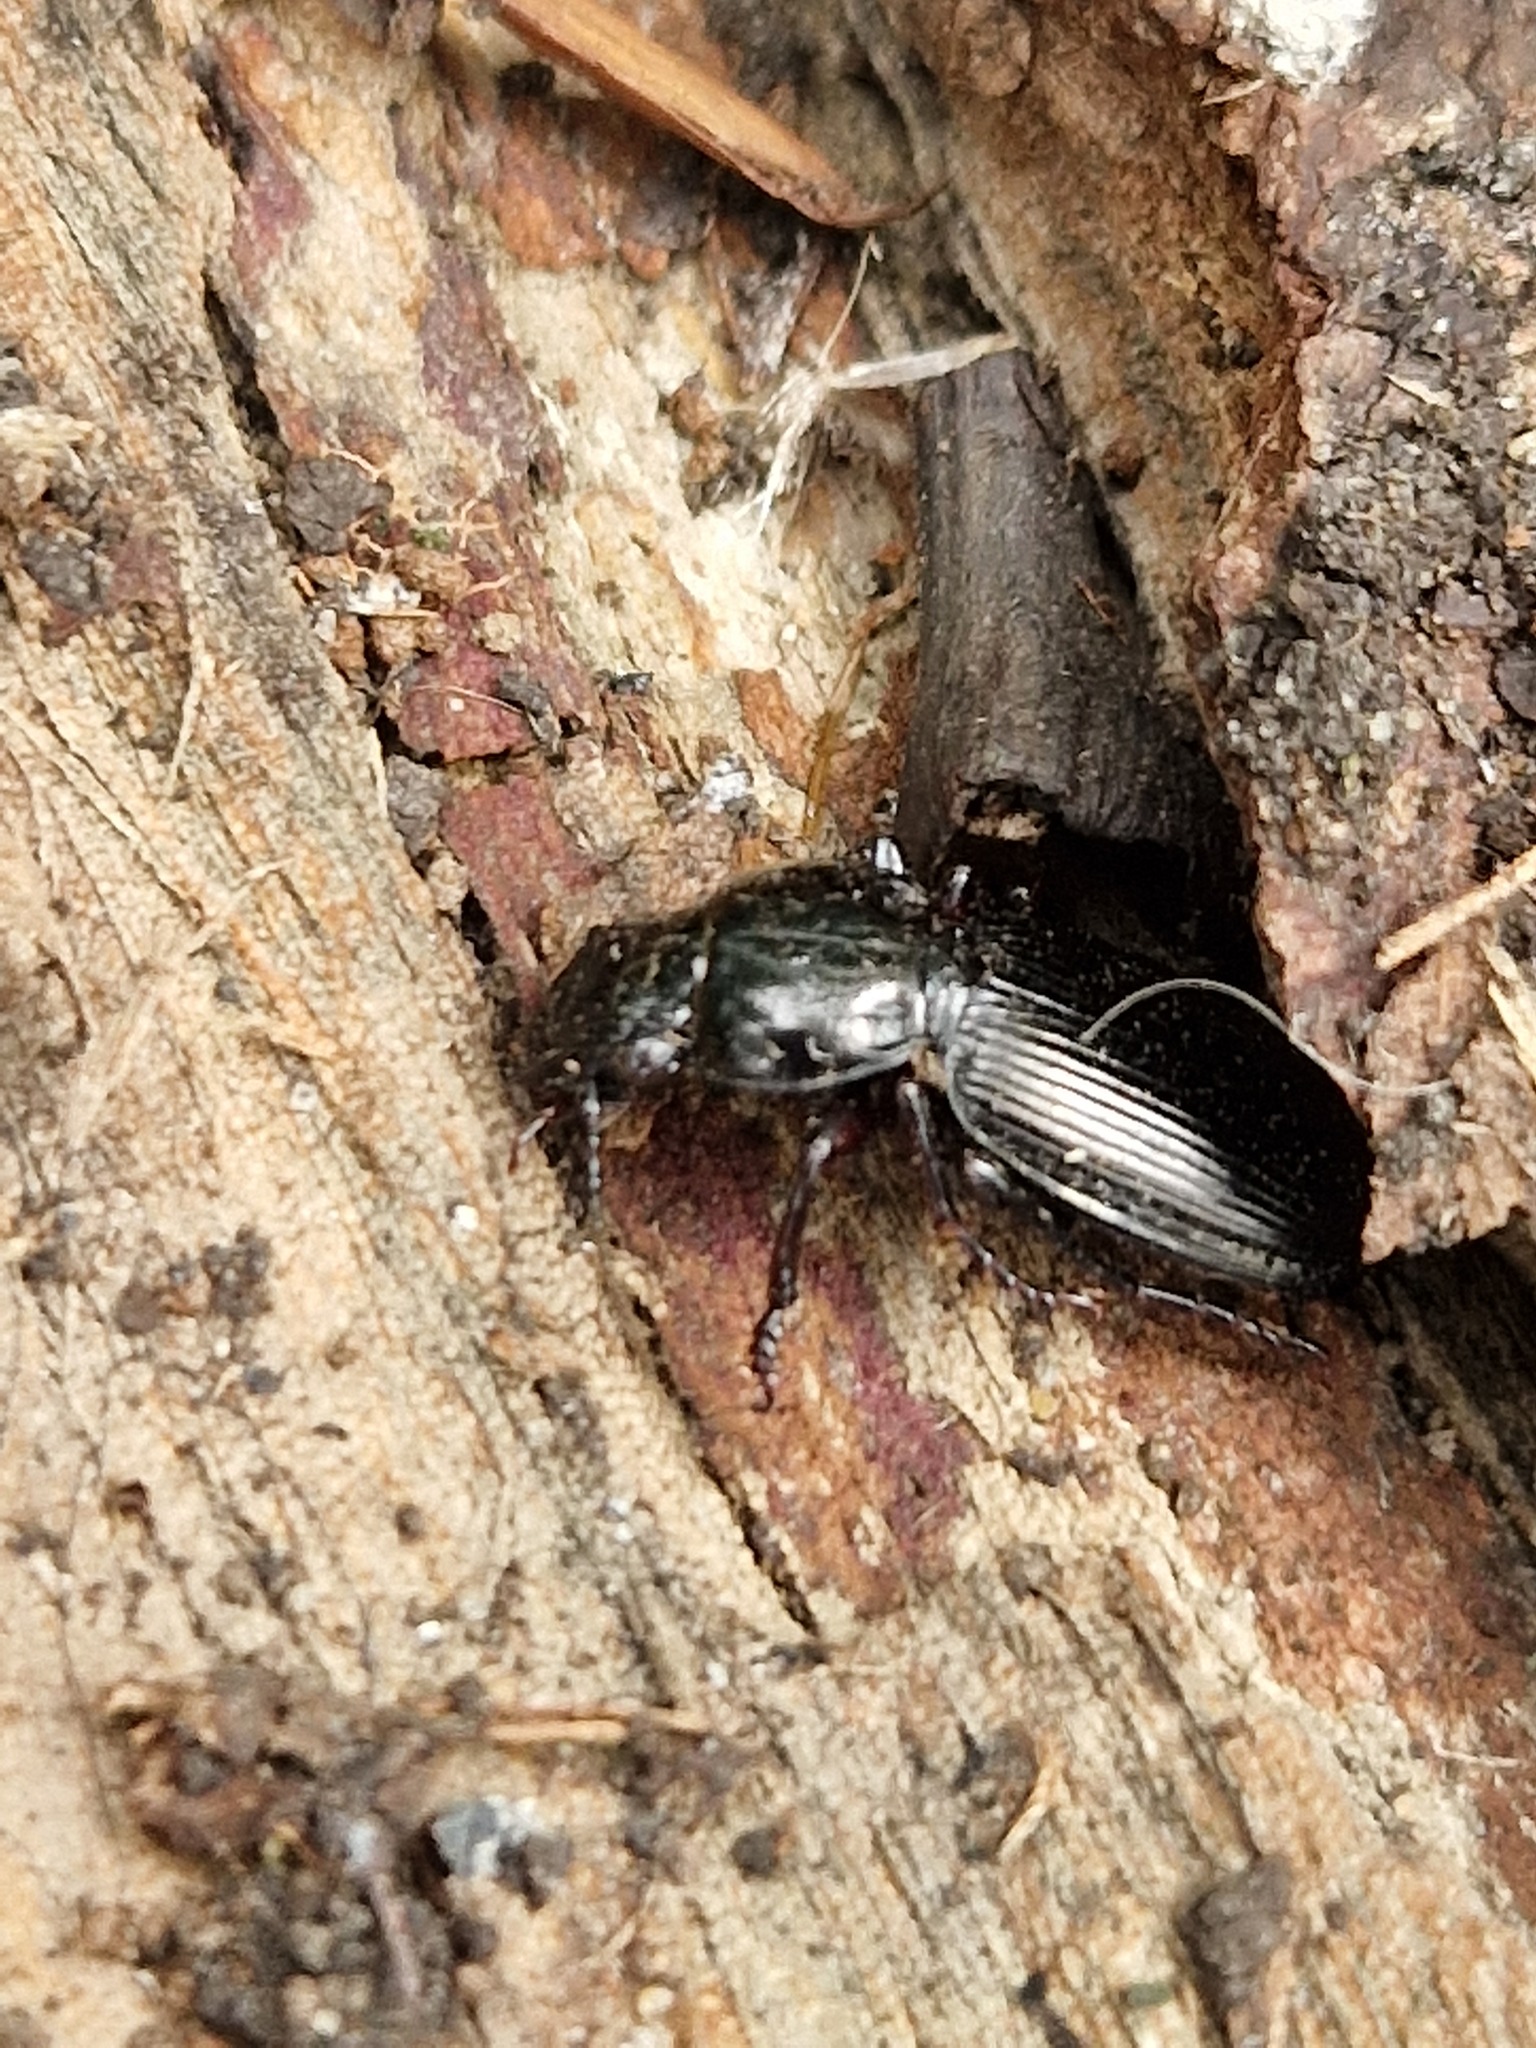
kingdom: Animalia
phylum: Arthropoda
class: Insecta
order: Coleoptera
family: Carabidae
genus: Pterostichus
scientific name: Pterostichus madidus
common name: Black clock
